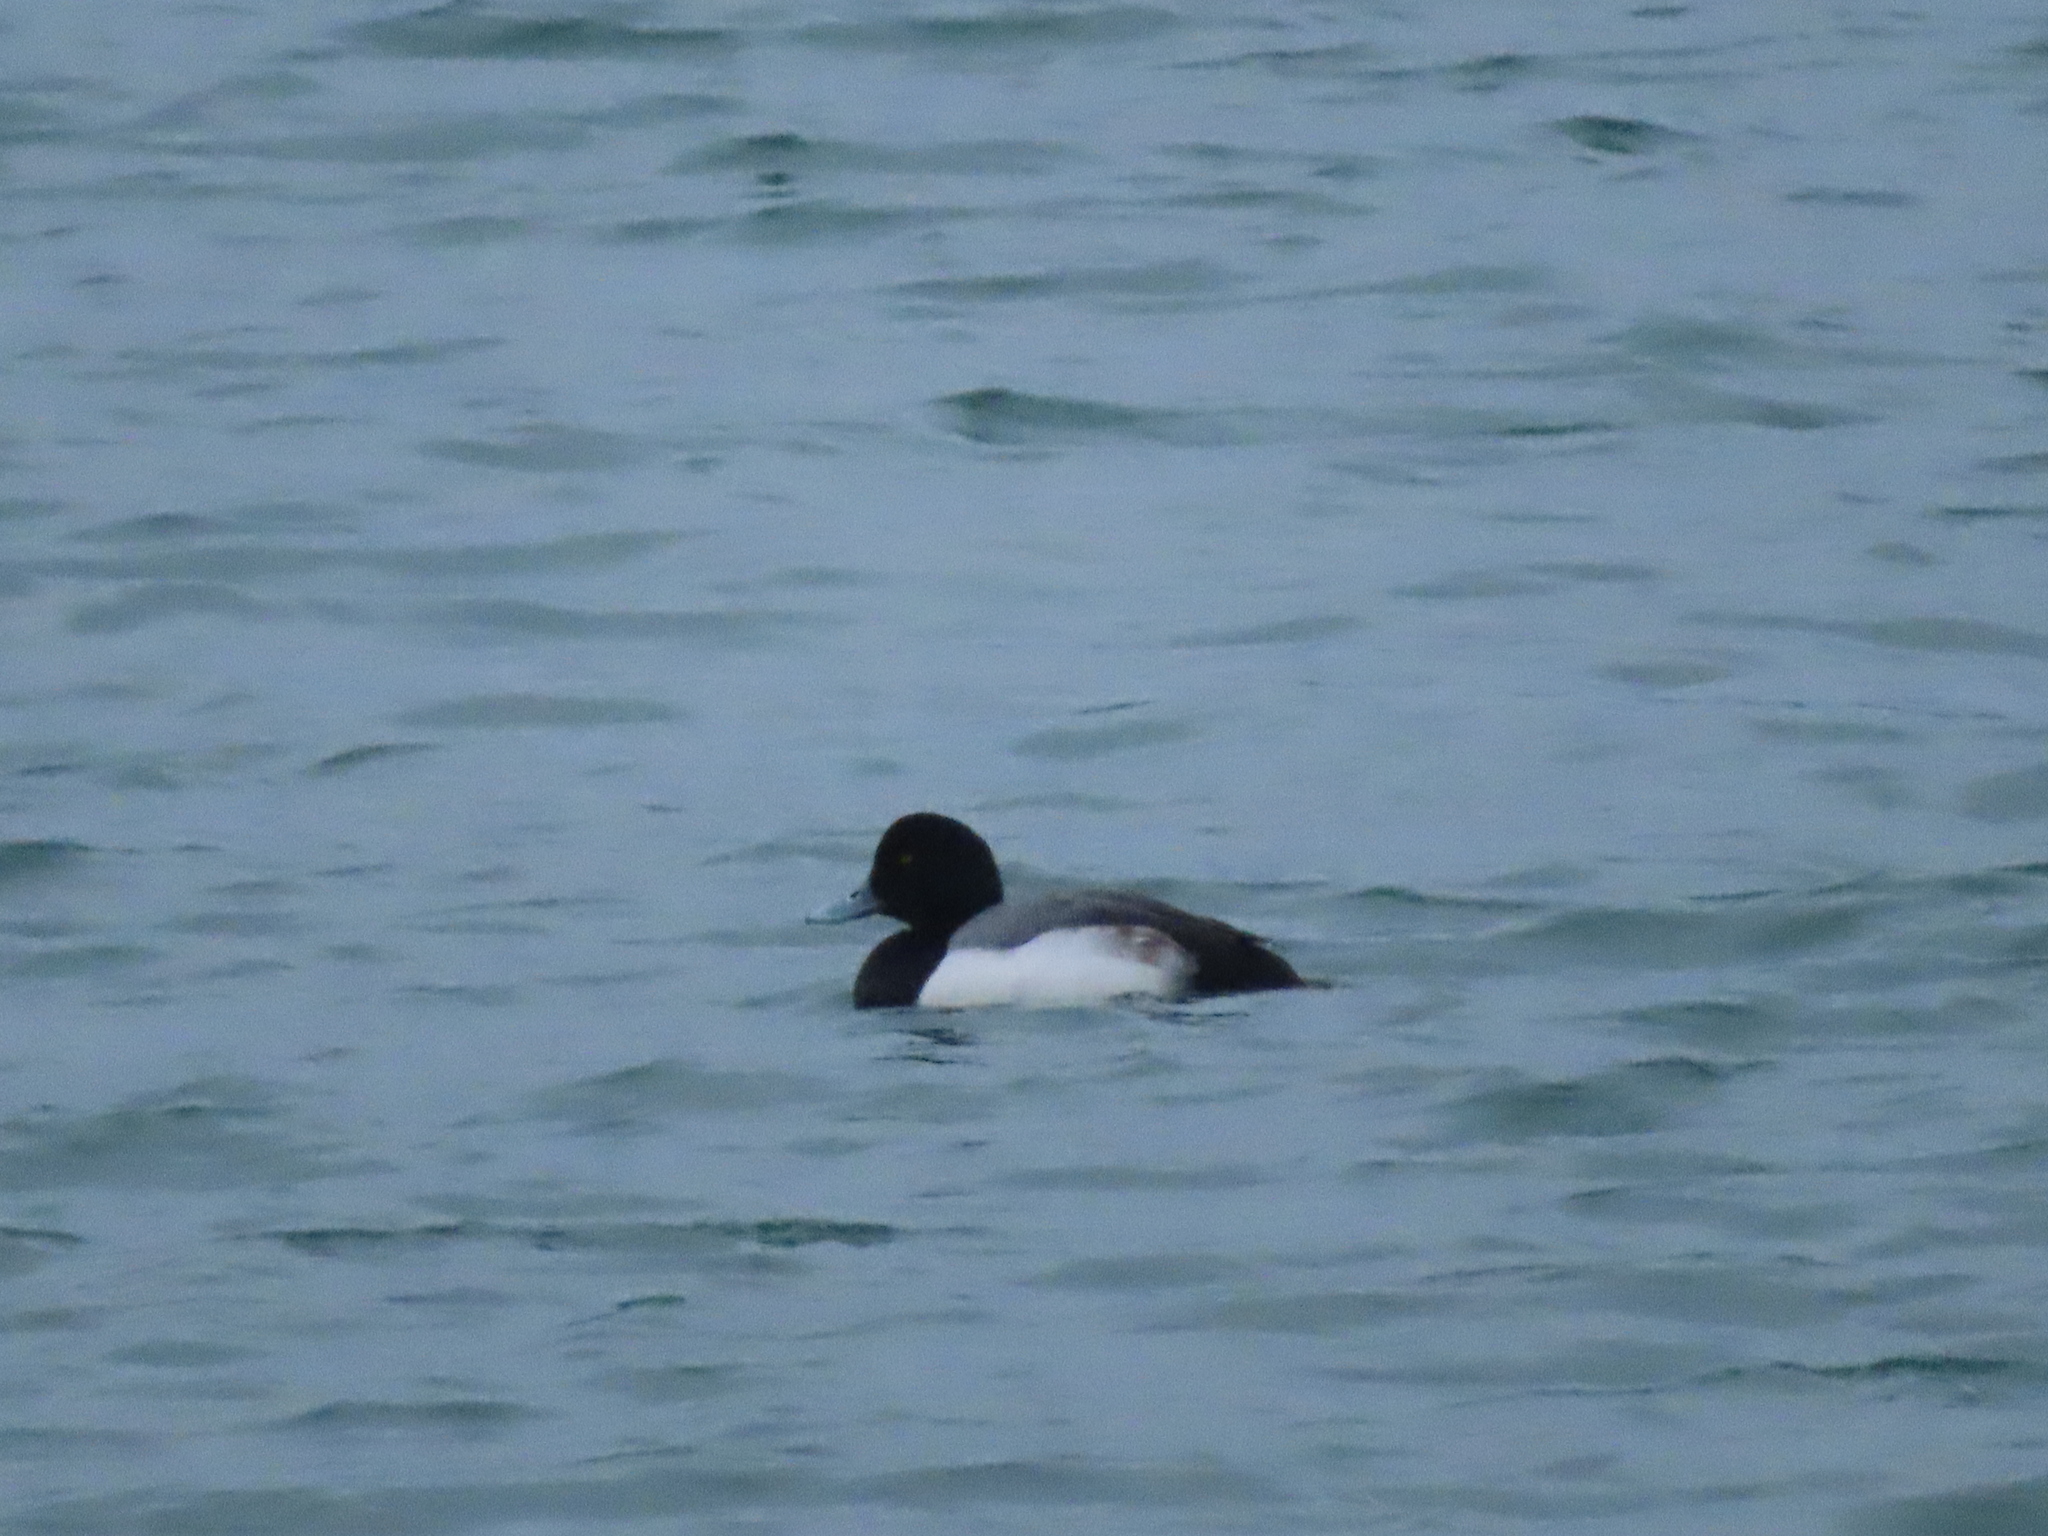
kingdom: Animalia
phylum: Chordata
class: Aves
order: Anseriformes
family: Anatidae
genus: Aythya
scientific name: Aythya marila
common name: Greater scaup
